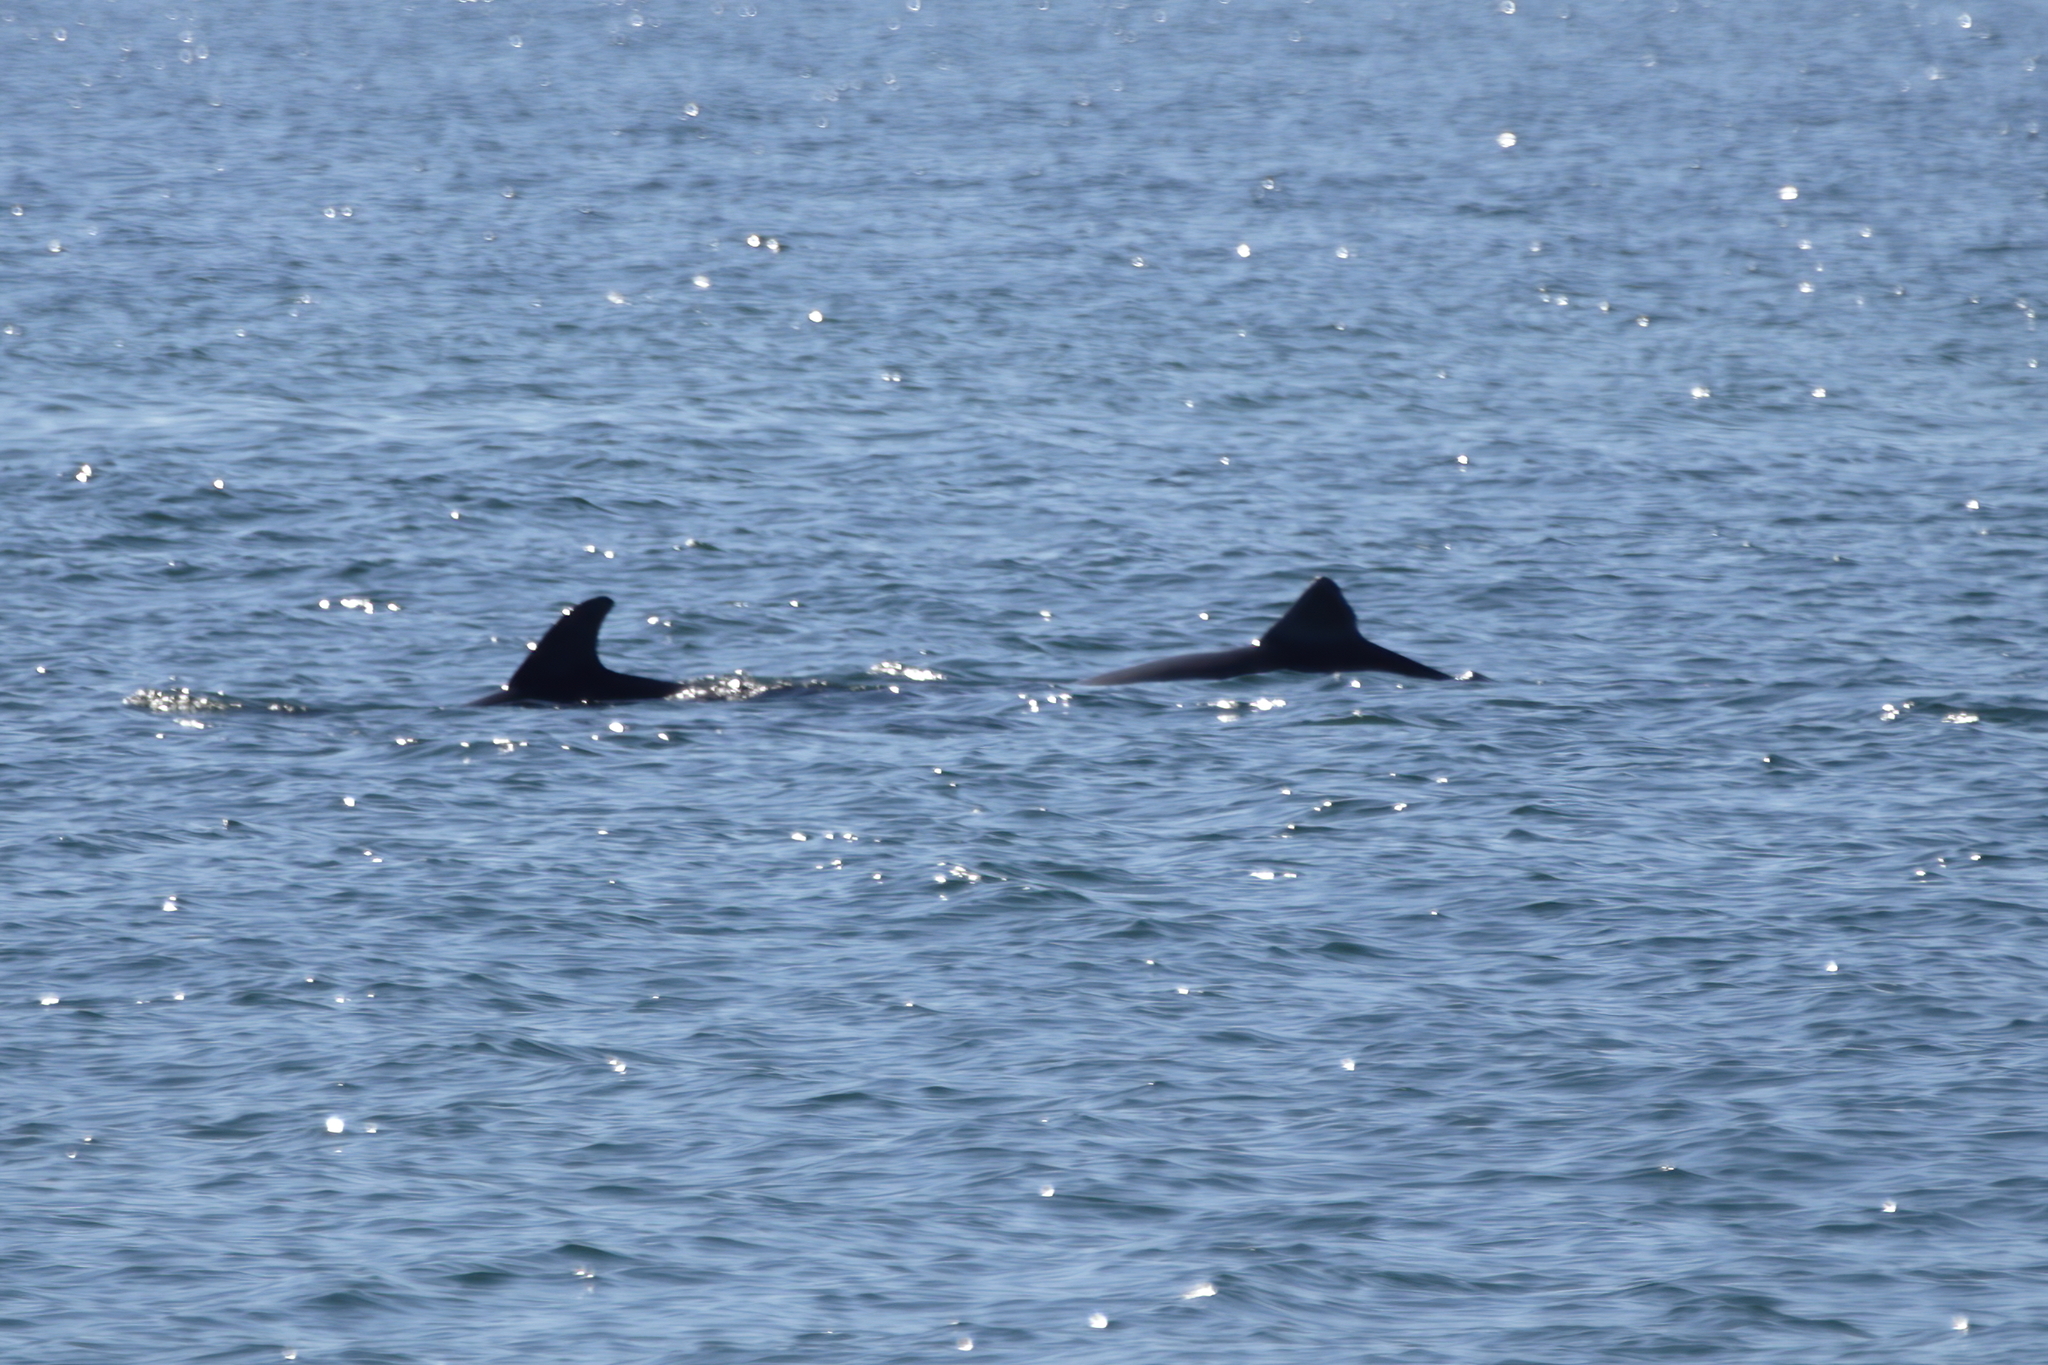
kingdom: Animalia
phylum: Chordata
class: Mammalia
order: Cetacea
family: Delphinidae
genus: Tursiops
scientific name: Tursiops truncatus
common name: Bottlenose dolphin
